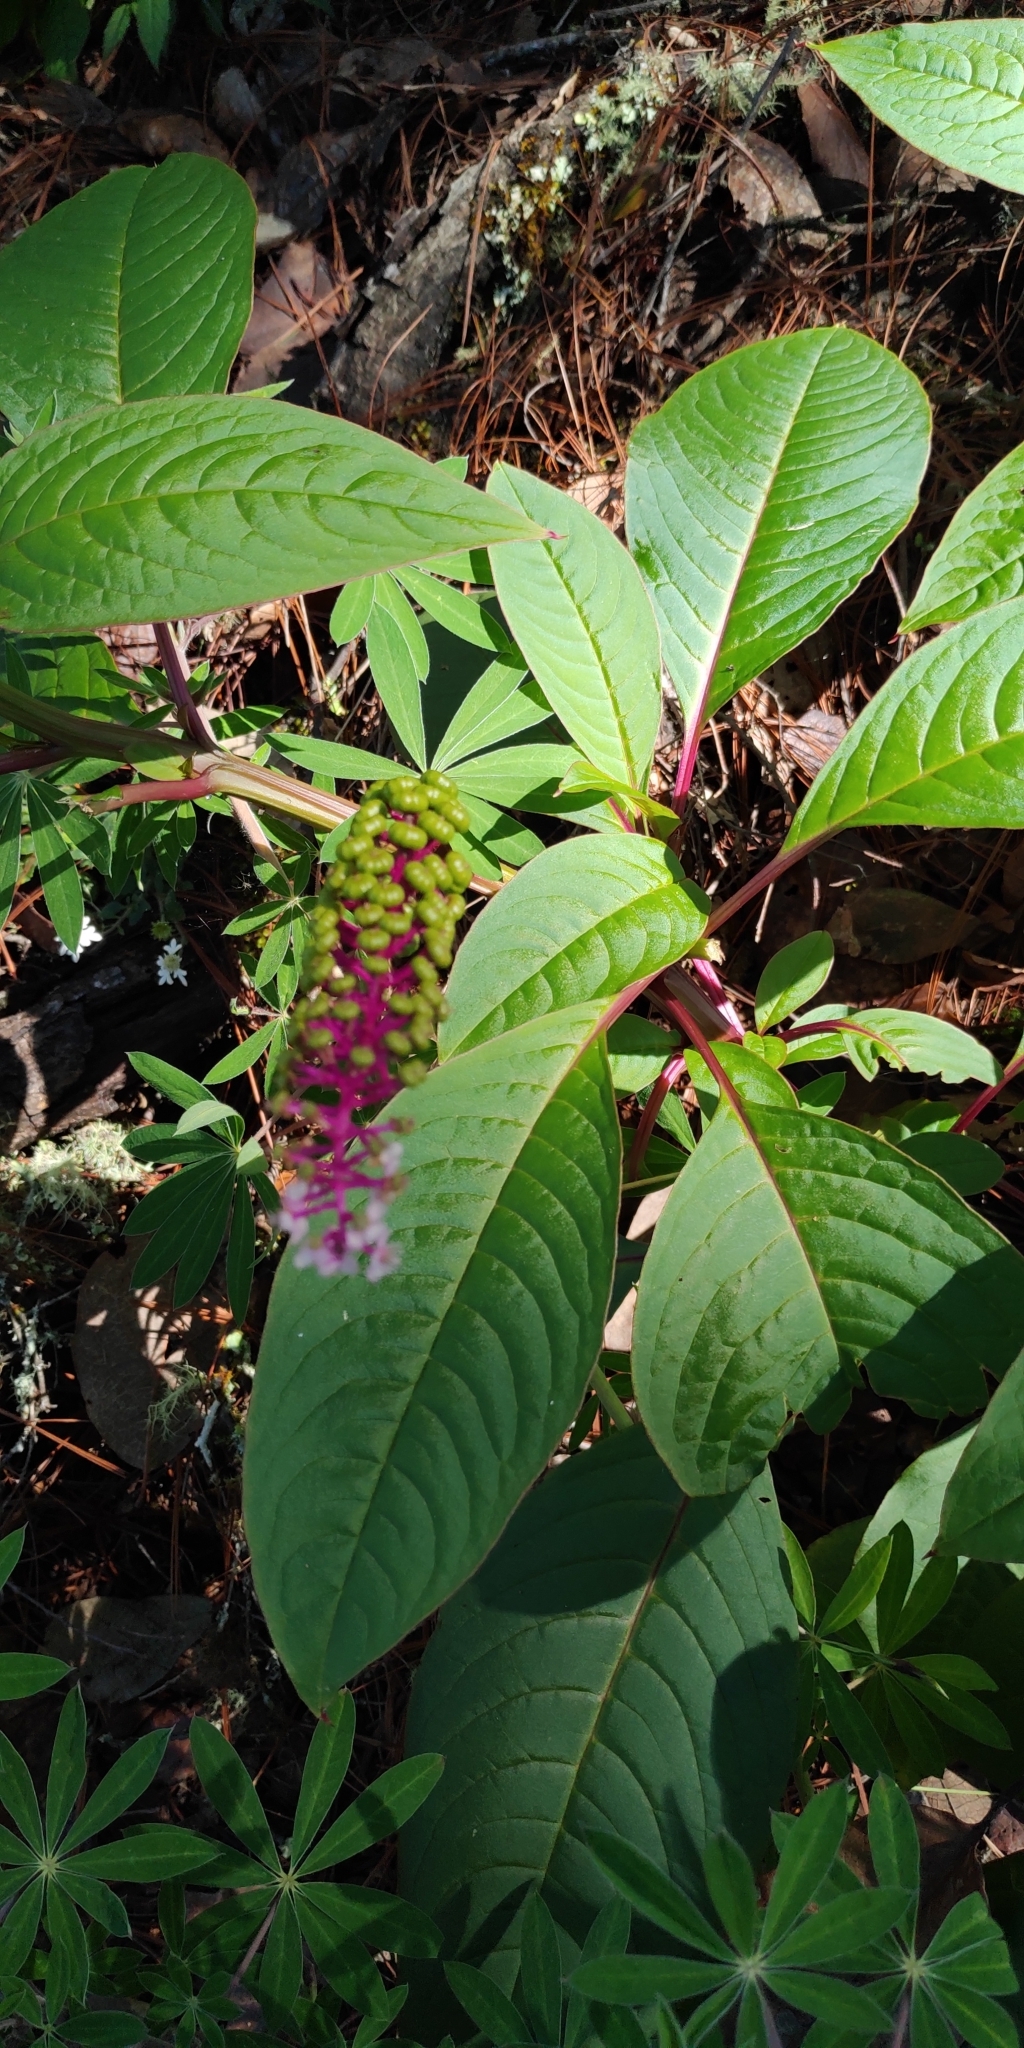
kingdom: Plantae
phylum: Tracheophyta
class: Magnoliopsida
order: Caryophyllales
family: Phytolaccaceae
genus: Phytolacca
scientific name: Phytolacca icosandra
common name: Button pokeweed
